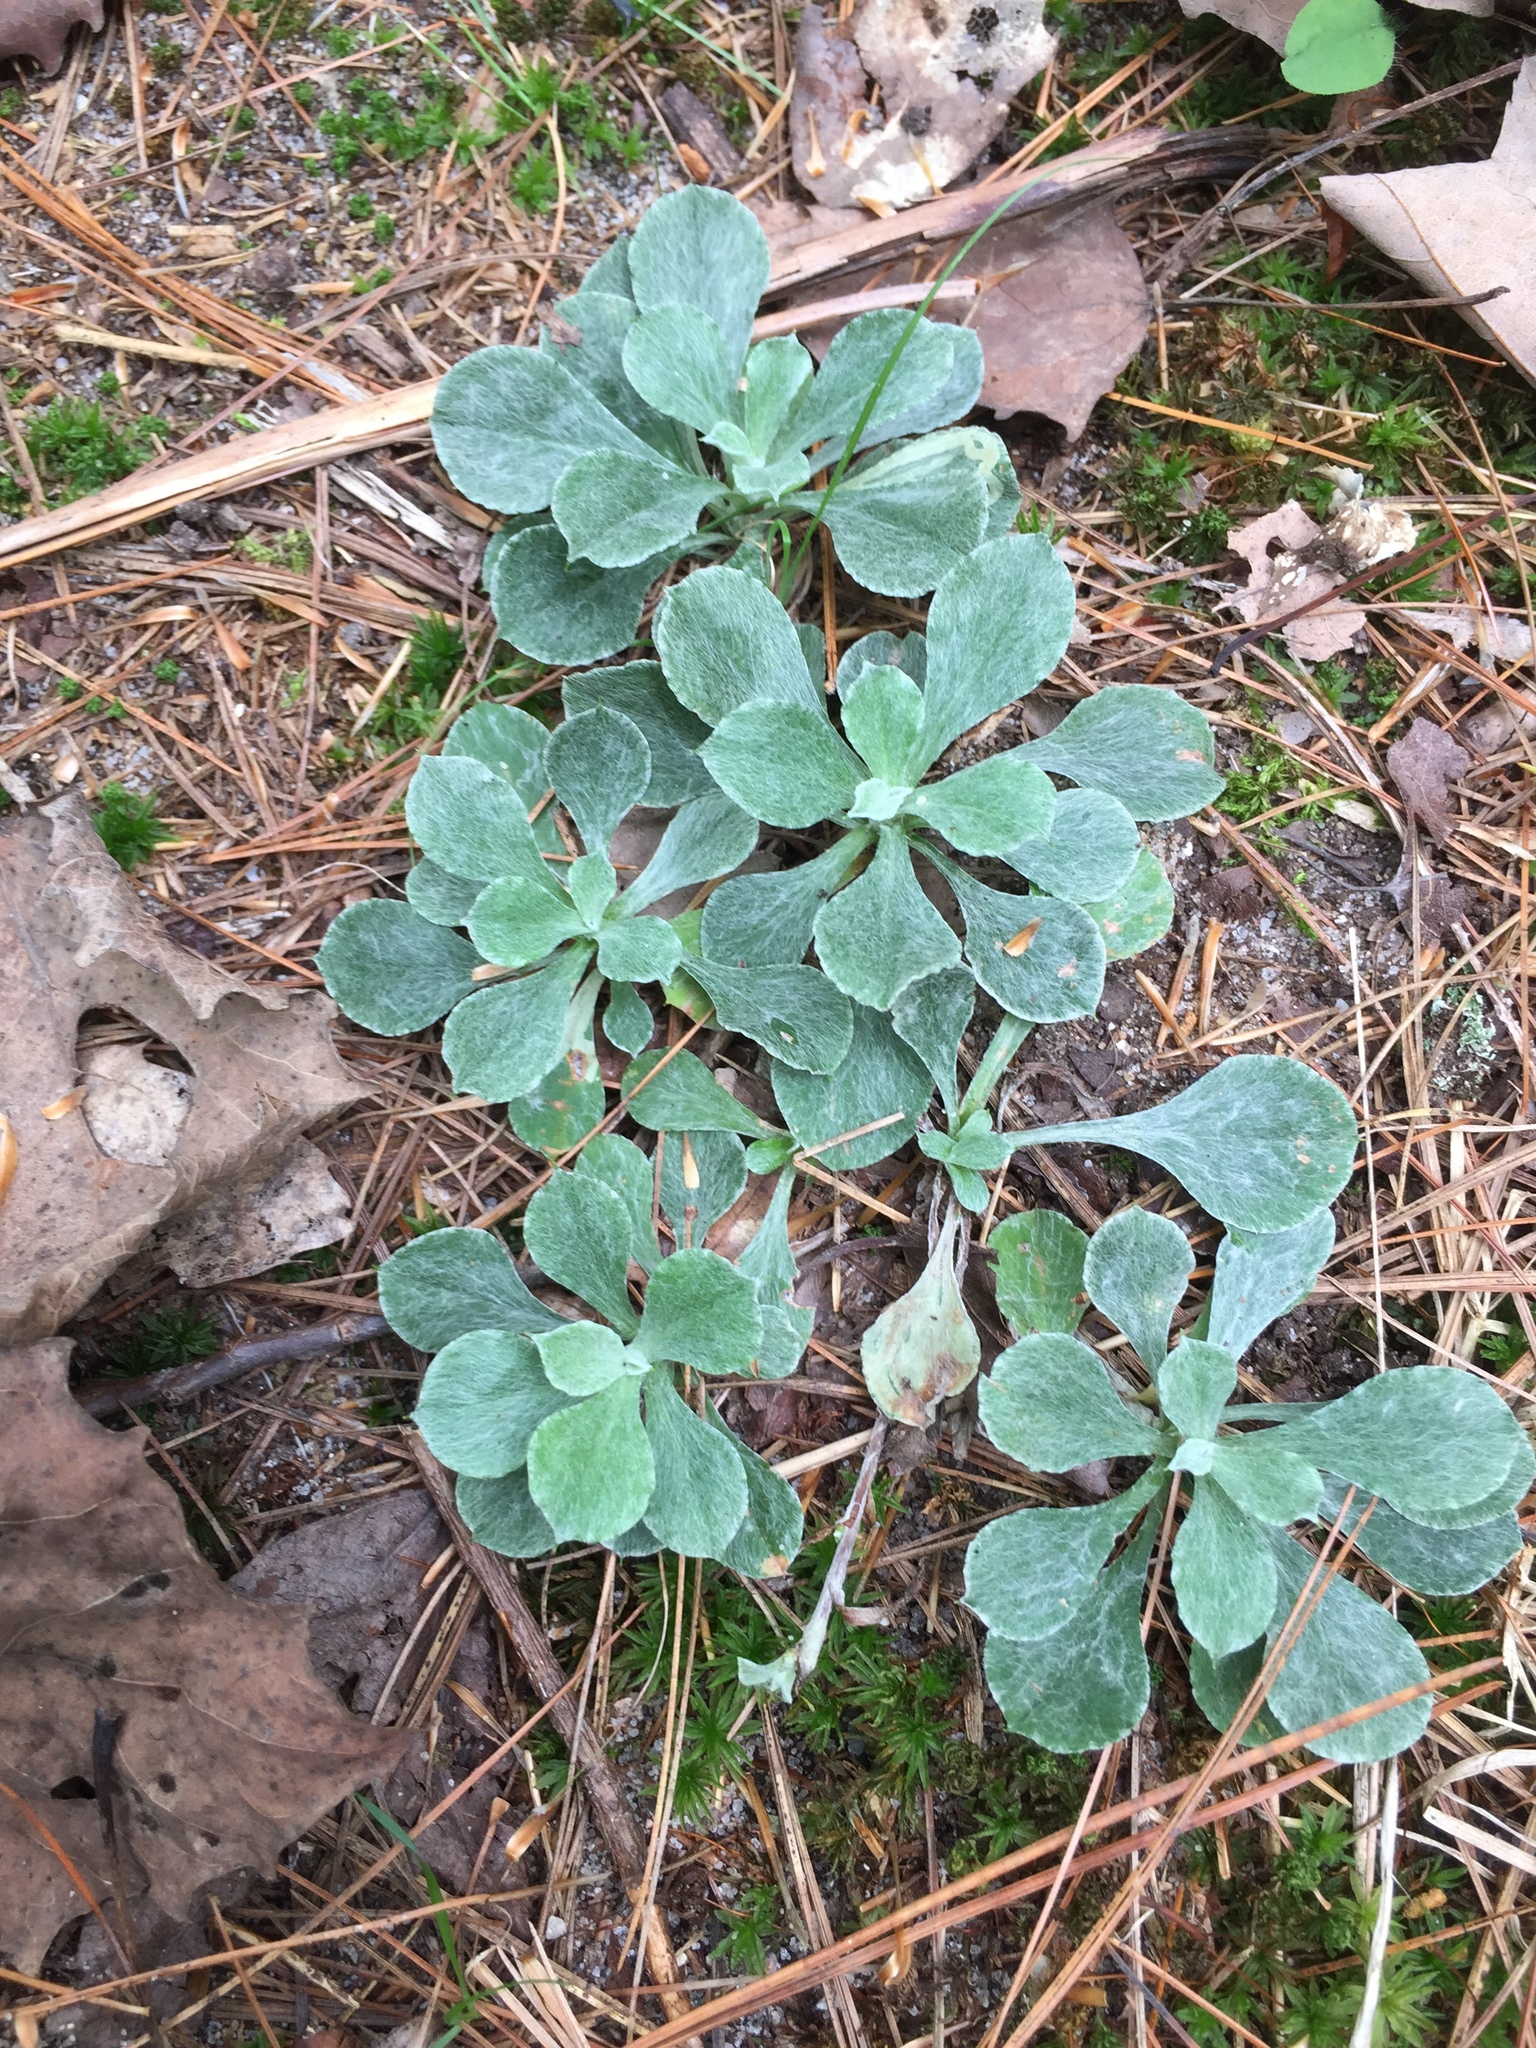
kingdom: Plantae
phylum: Tracheophyta
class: Magnoliopsida
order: Asterales
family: Asteraceae
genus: Antennaria
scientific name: Antennaria howellii
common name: Howell's pussytoes
